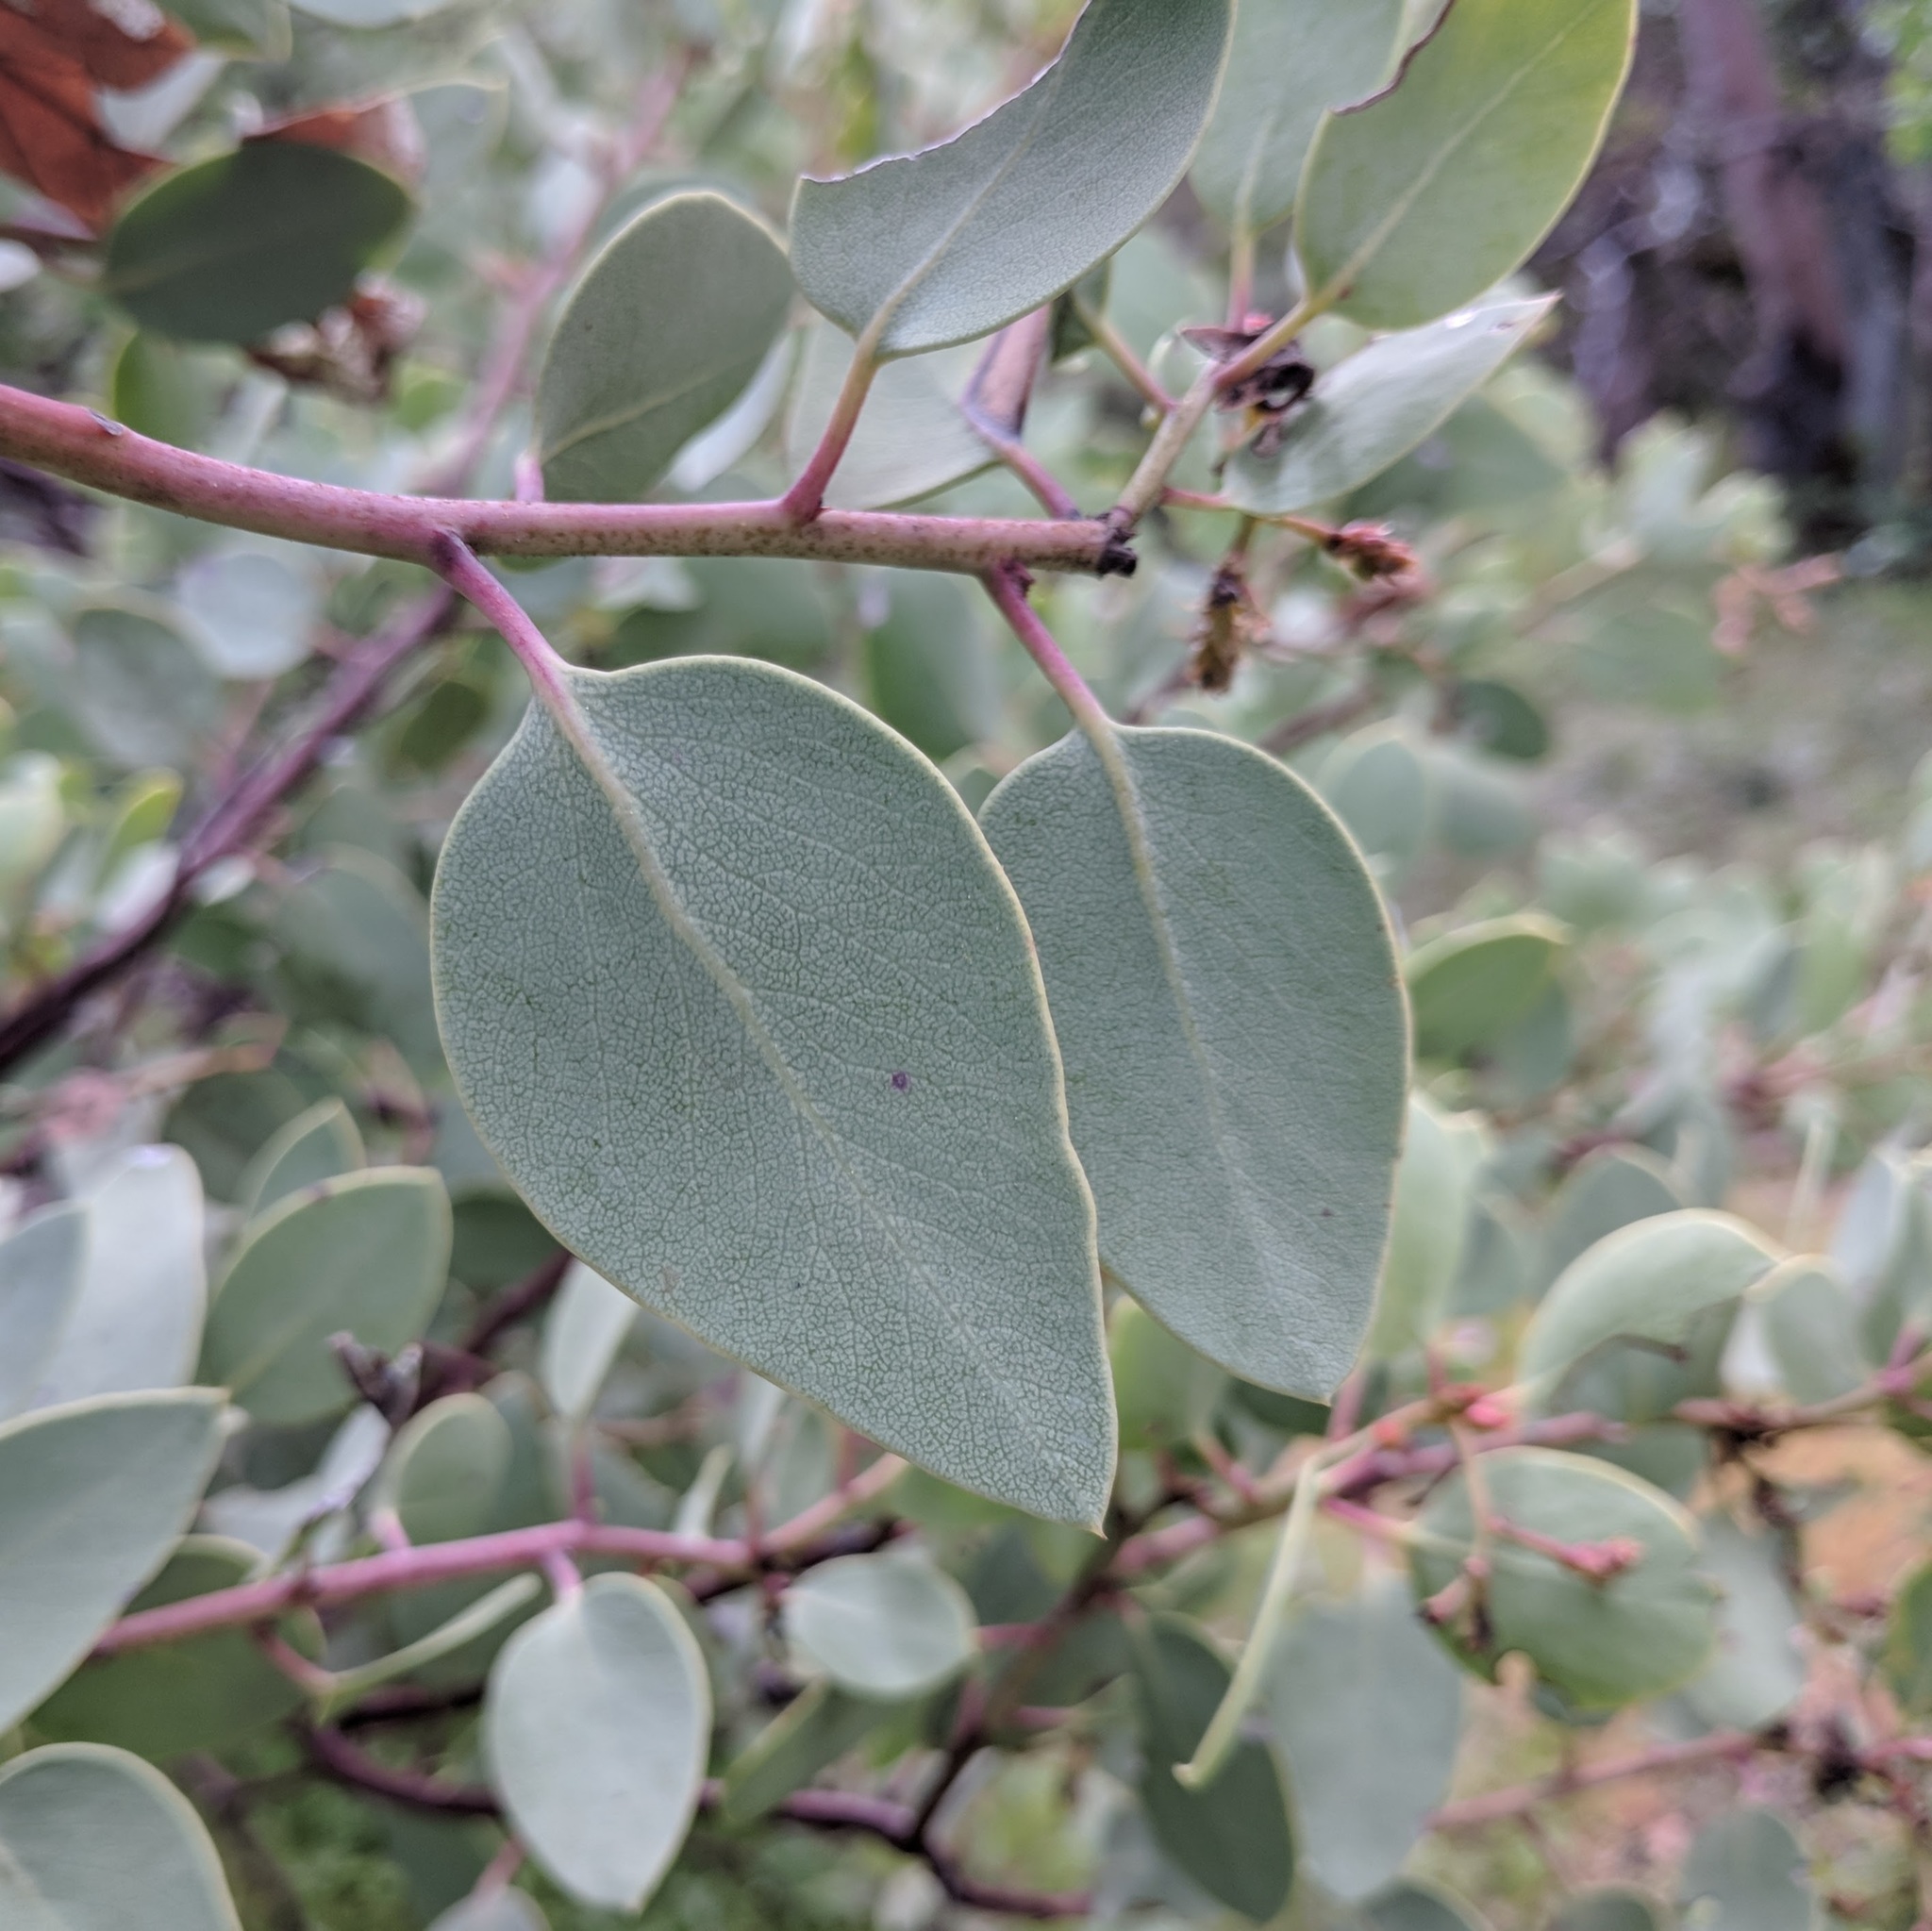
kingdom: Plantae
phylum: Tracheophyta
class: Magnoliopsida
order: Ericales
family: Ericaceae
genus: Arctostaphylos
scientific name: Arctostaphylos viscida
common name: White-leaf manzanita
